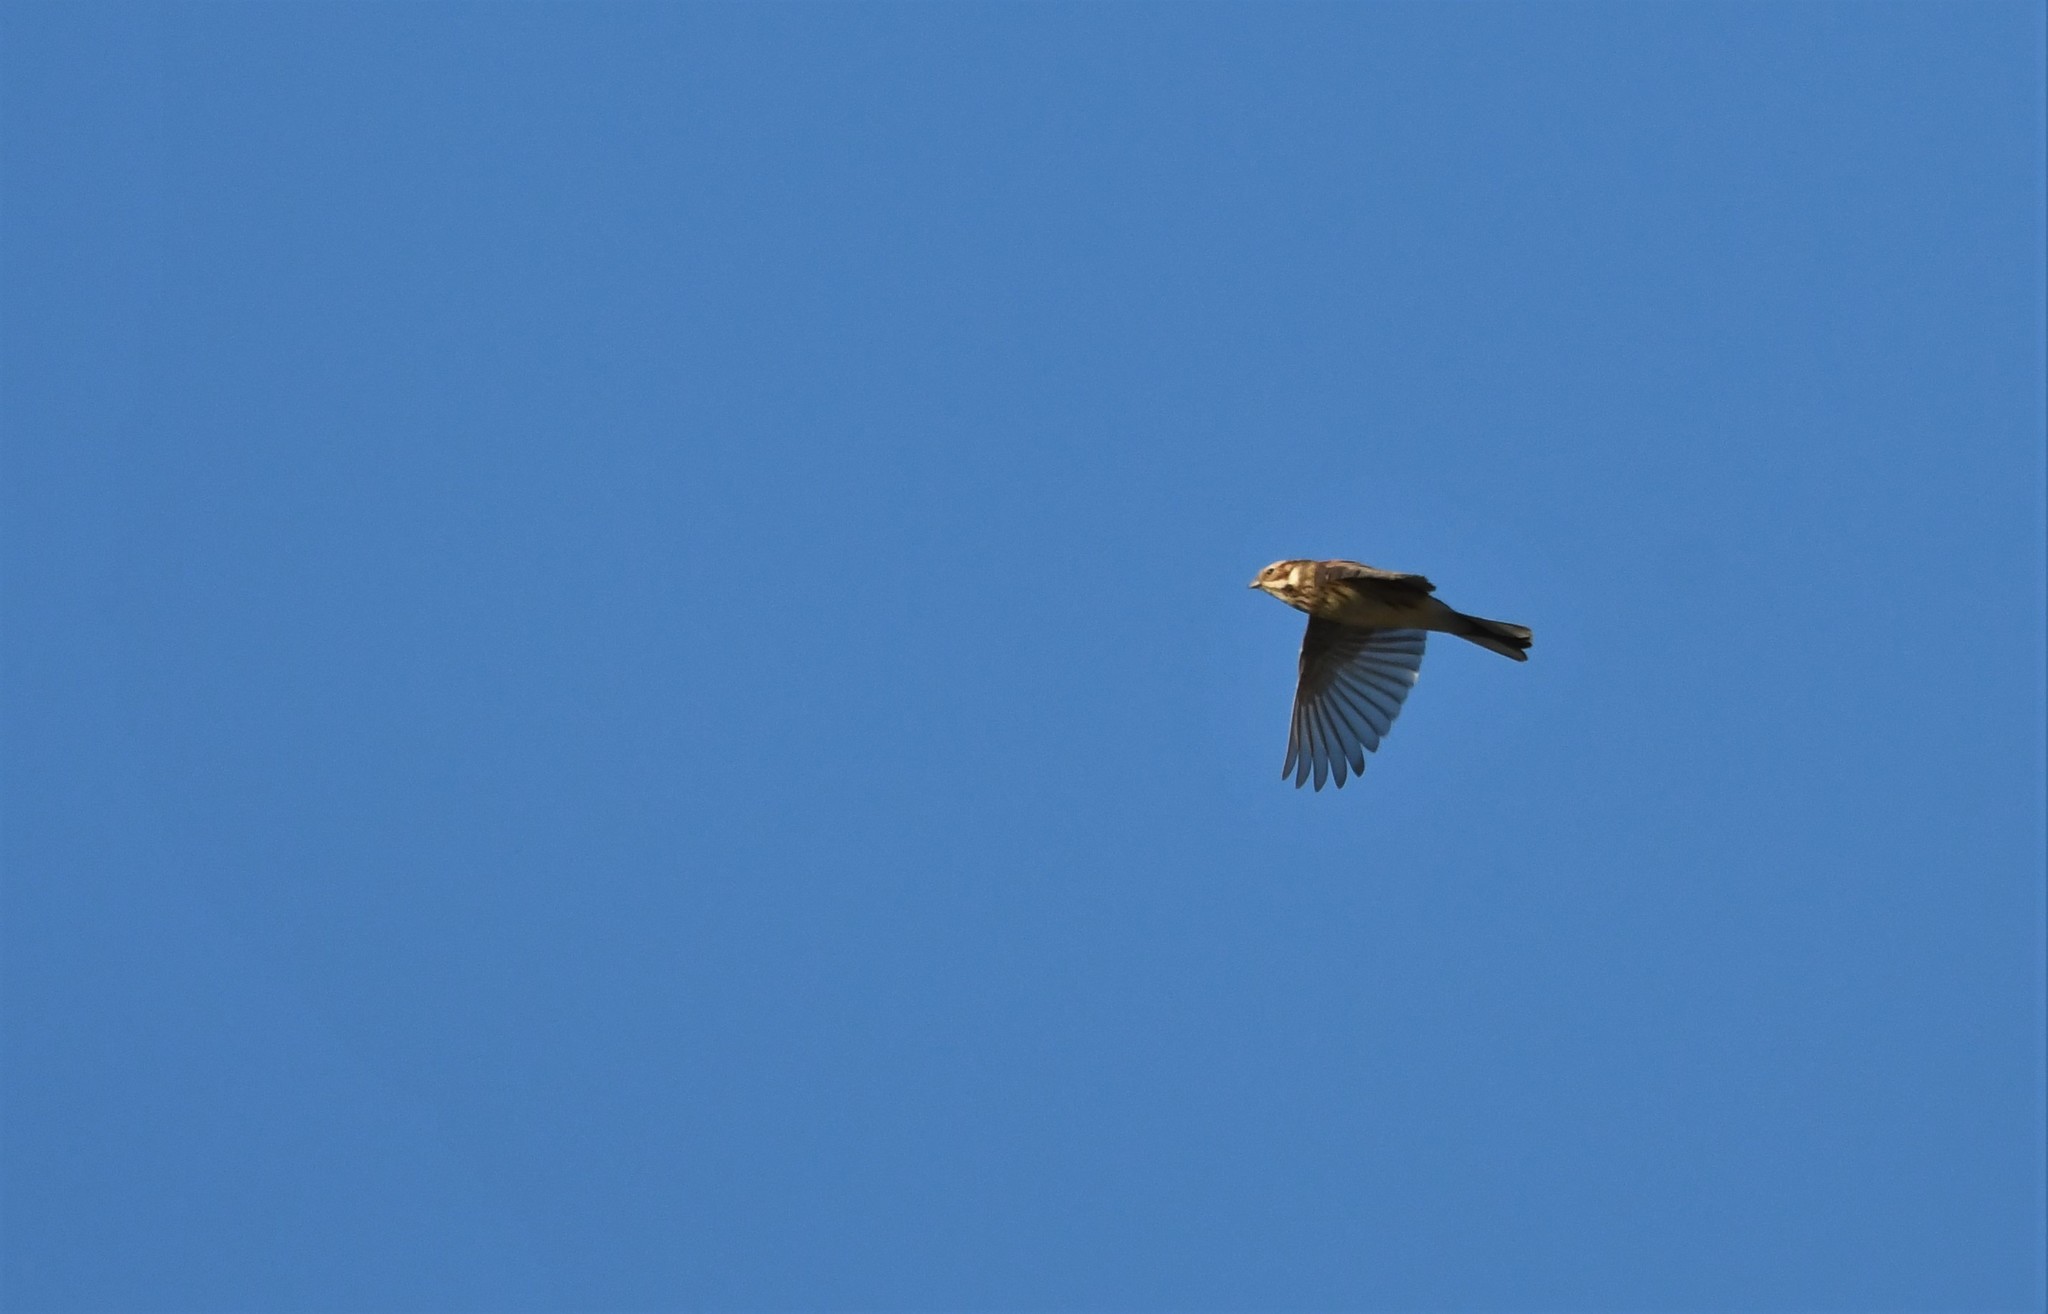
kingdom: Animalia
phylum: Chordata
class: Aves
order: Passeriformes
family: Emberizidae
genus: Emberiza
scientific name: Emberiza schoeniclus
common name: Reed bunting
